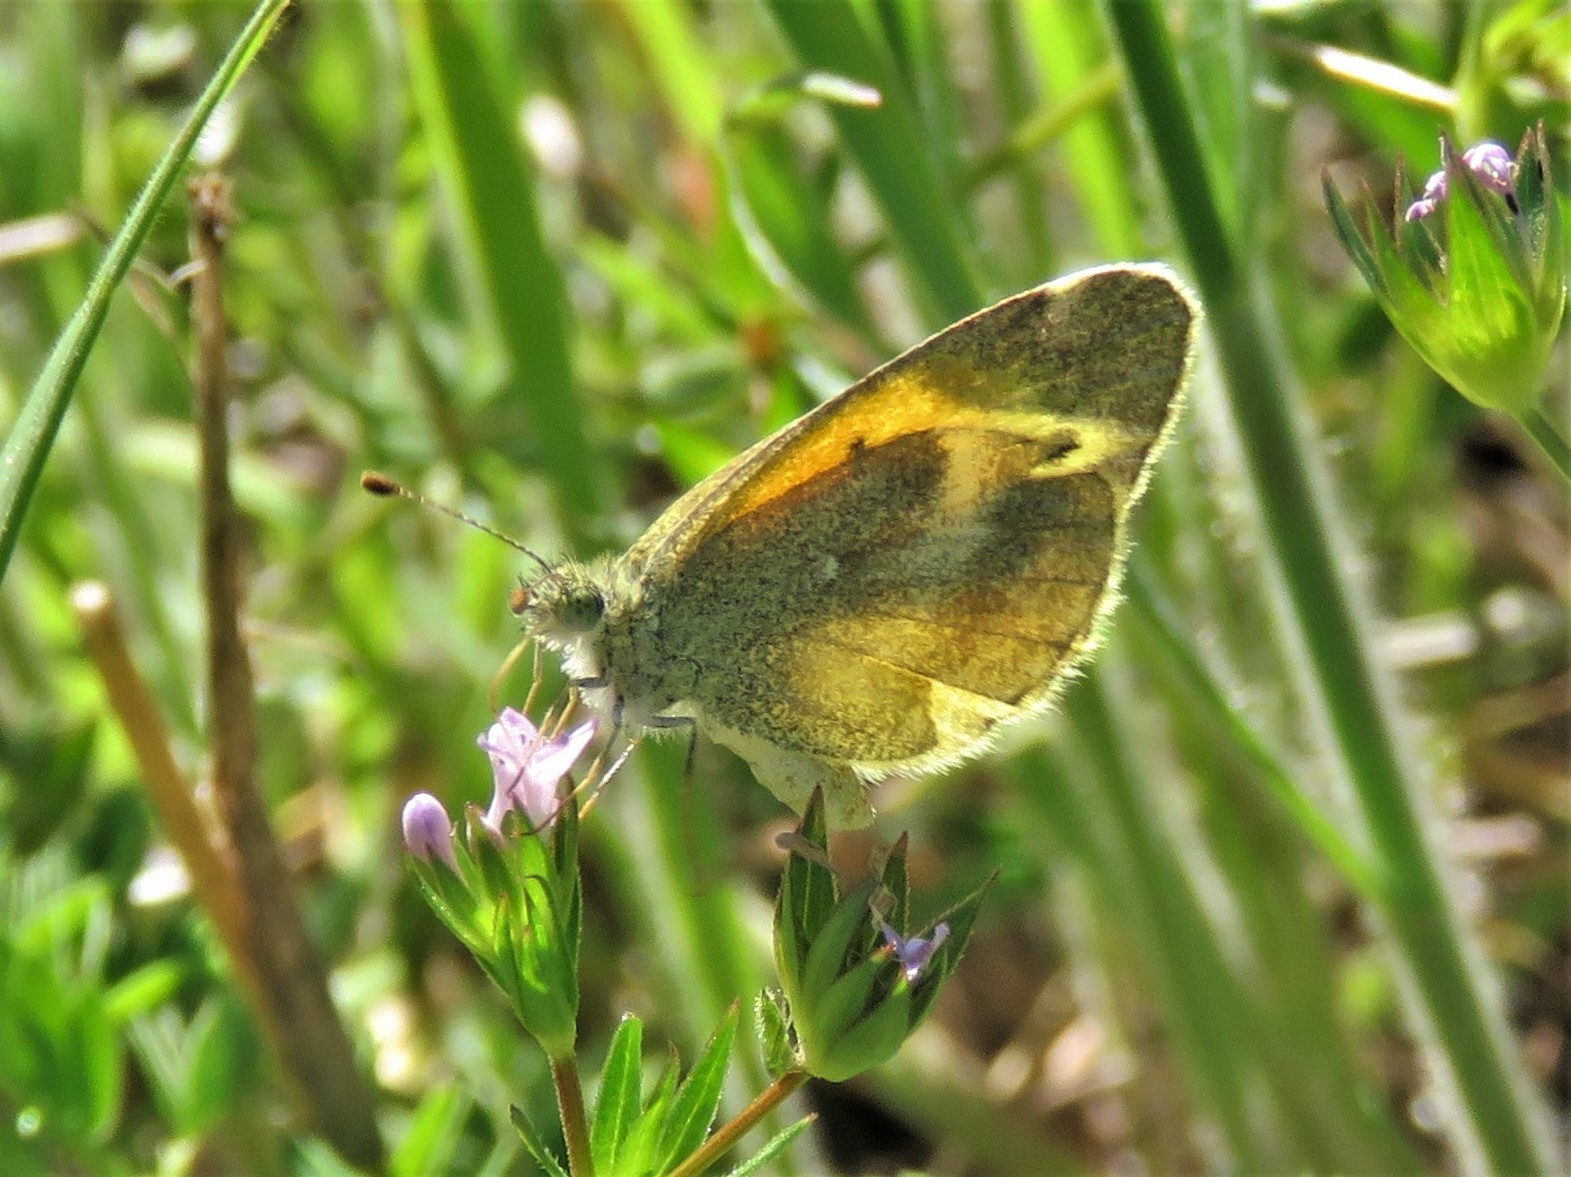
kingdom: Animalia
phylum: Arthropoda
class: Insecta
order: Lepidoptera
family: Pieridae
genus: Nathalis
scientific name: Nathalis iole
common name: Dainty sulphur
